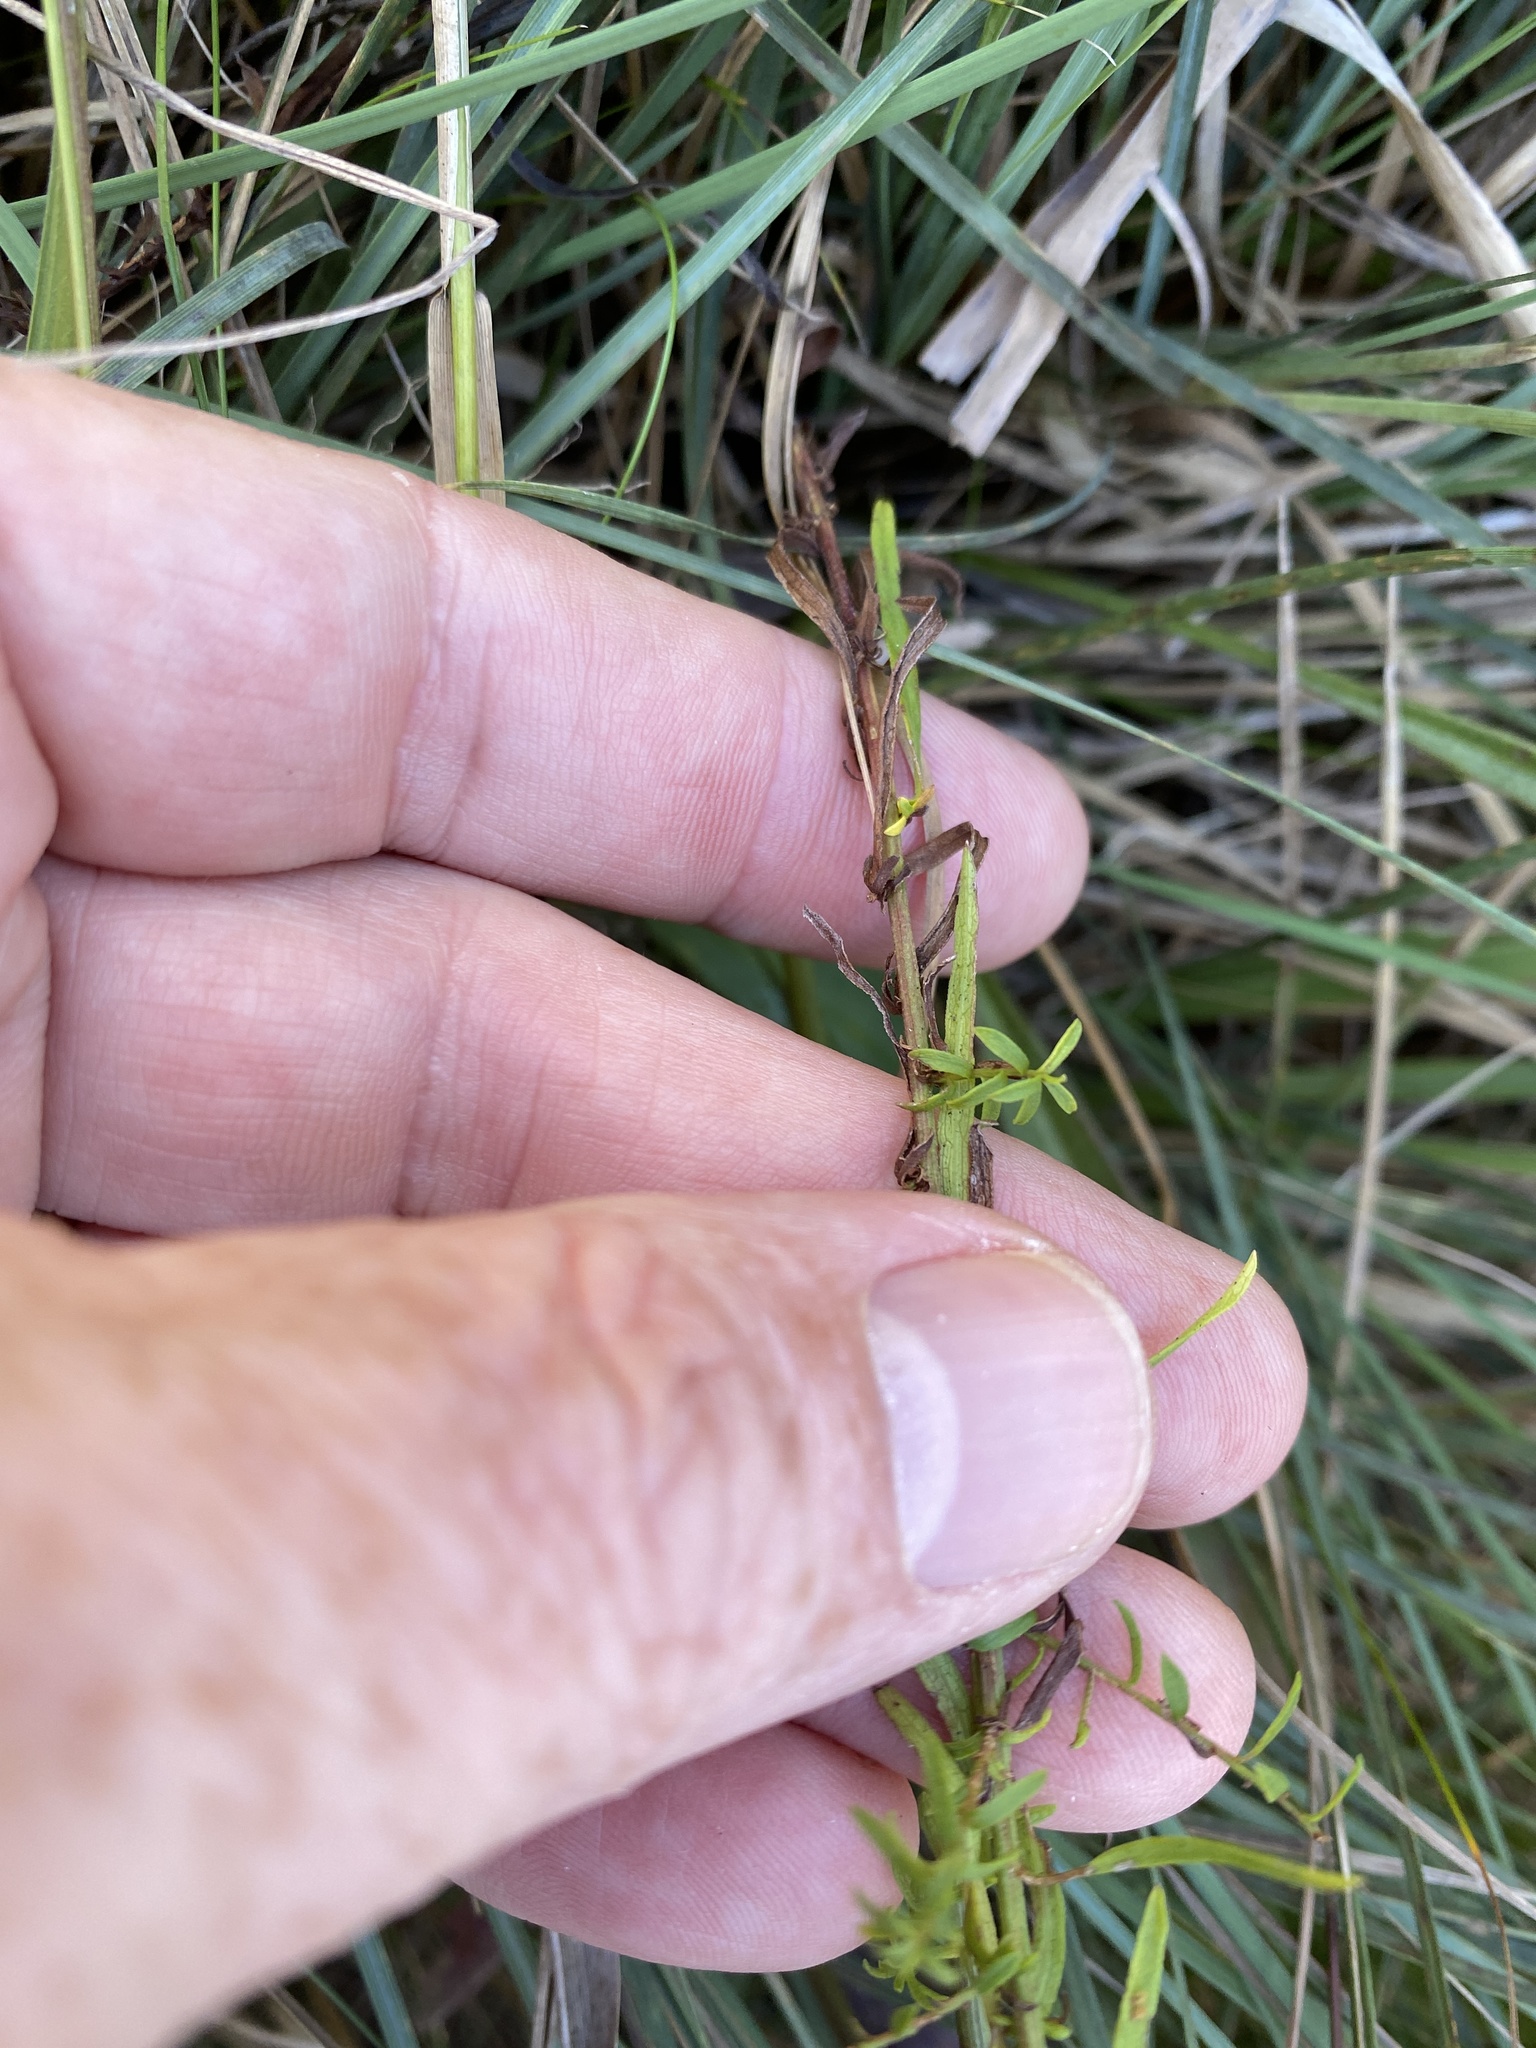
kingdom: Plantae
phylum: Tracheophyta
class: Magnoliopsida
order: Asterales
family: Asteraceae
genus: Symphyotrichum
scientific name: Symphyotrichum dumosum
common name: Bushy aster
